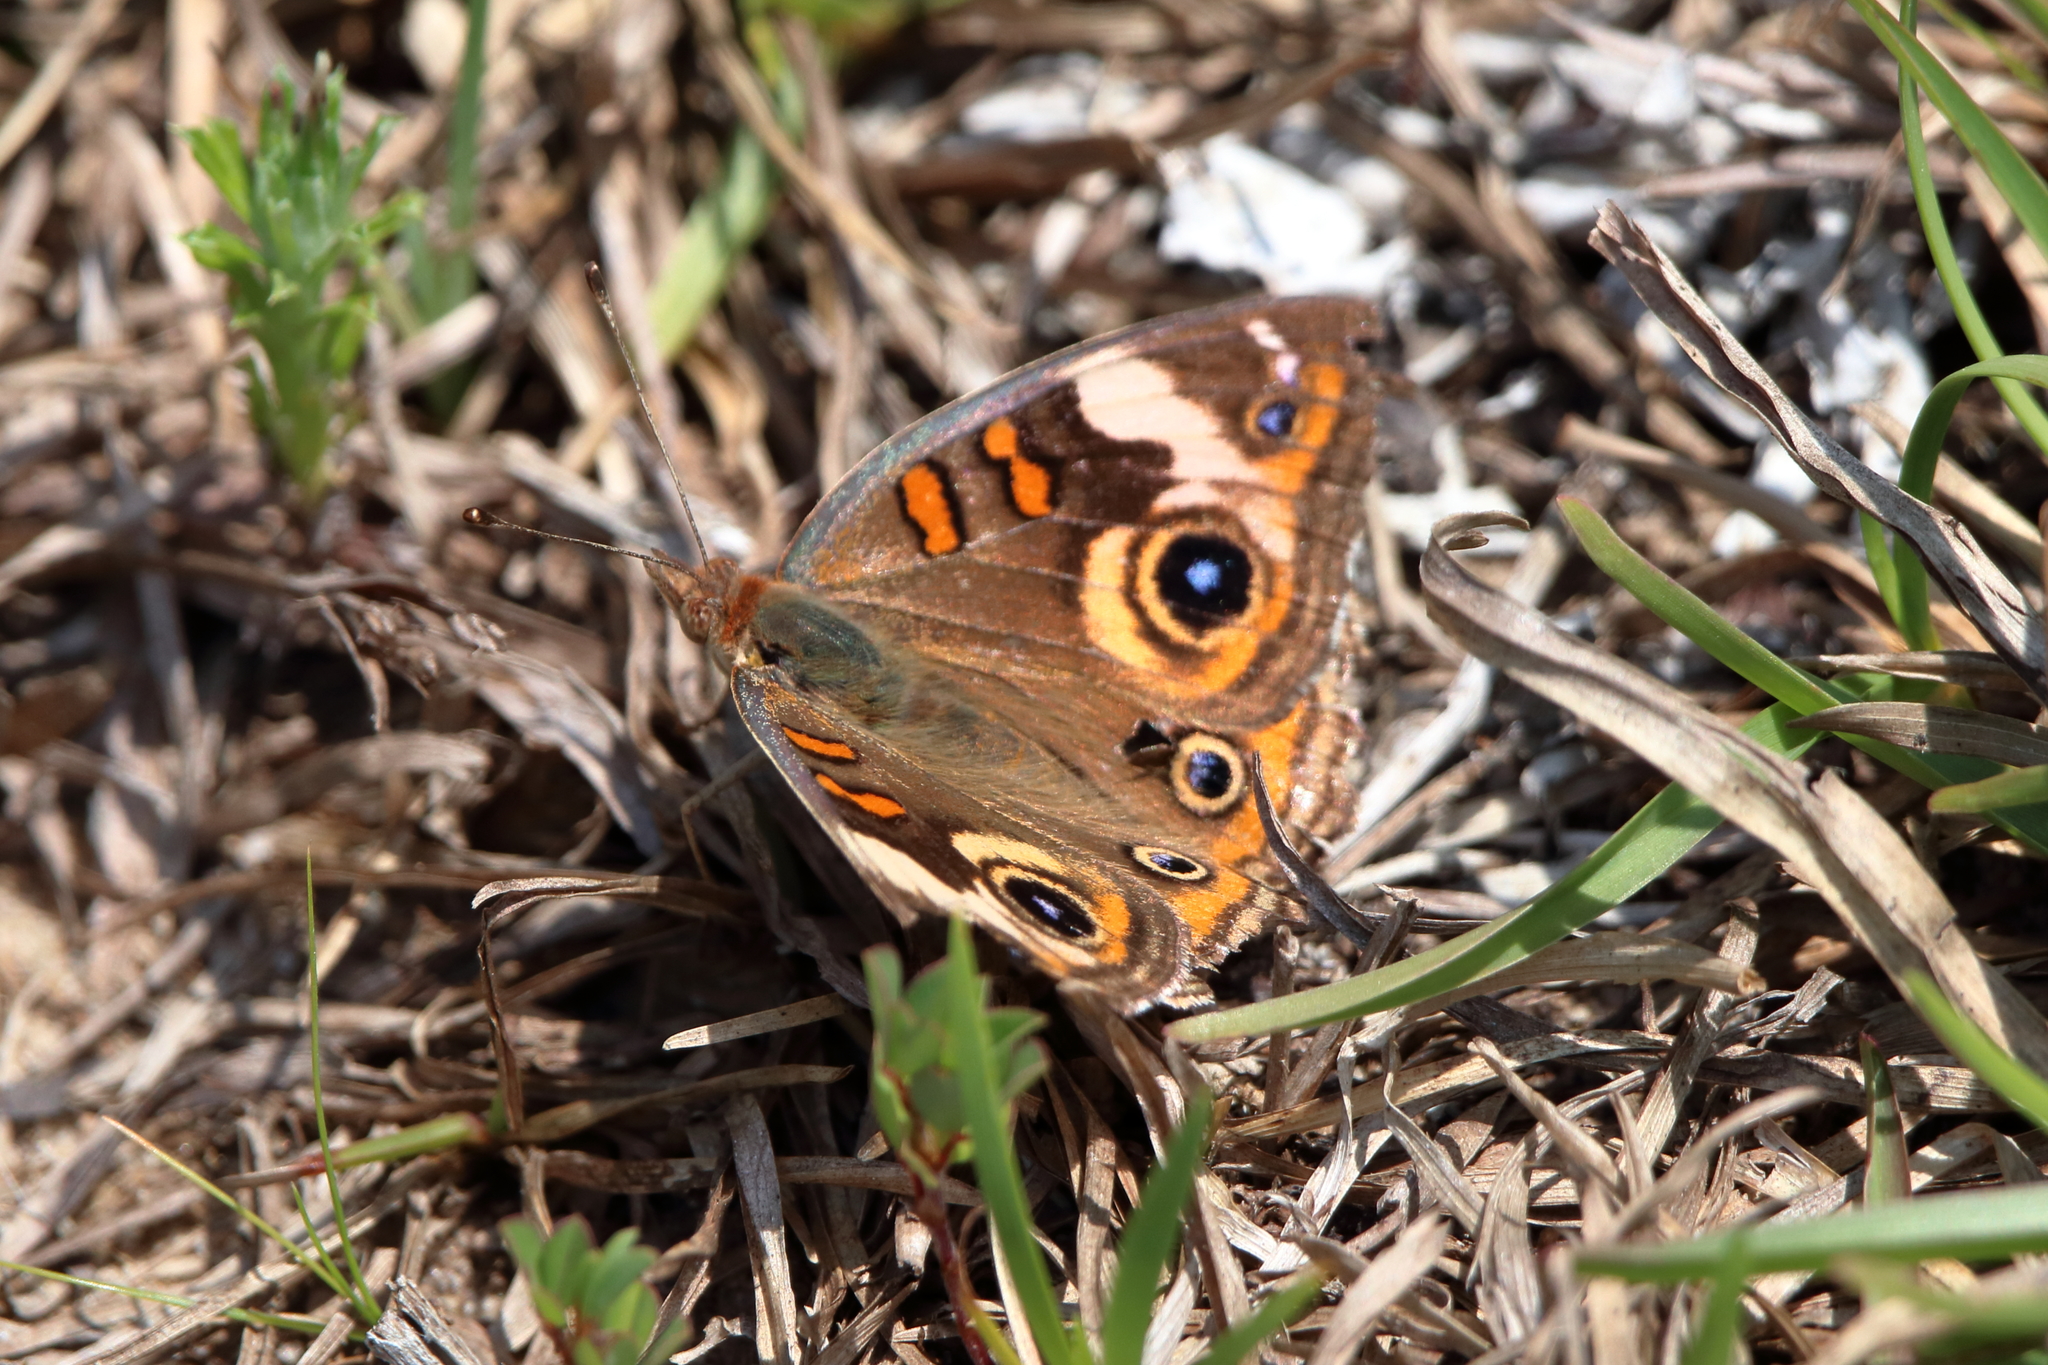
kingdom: Animalia
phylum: Arthropoda
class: Insecta
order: Lepidoptera
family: Nymphalidae
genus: Junonia
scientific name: Junonia coenia
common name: Common buckeye
